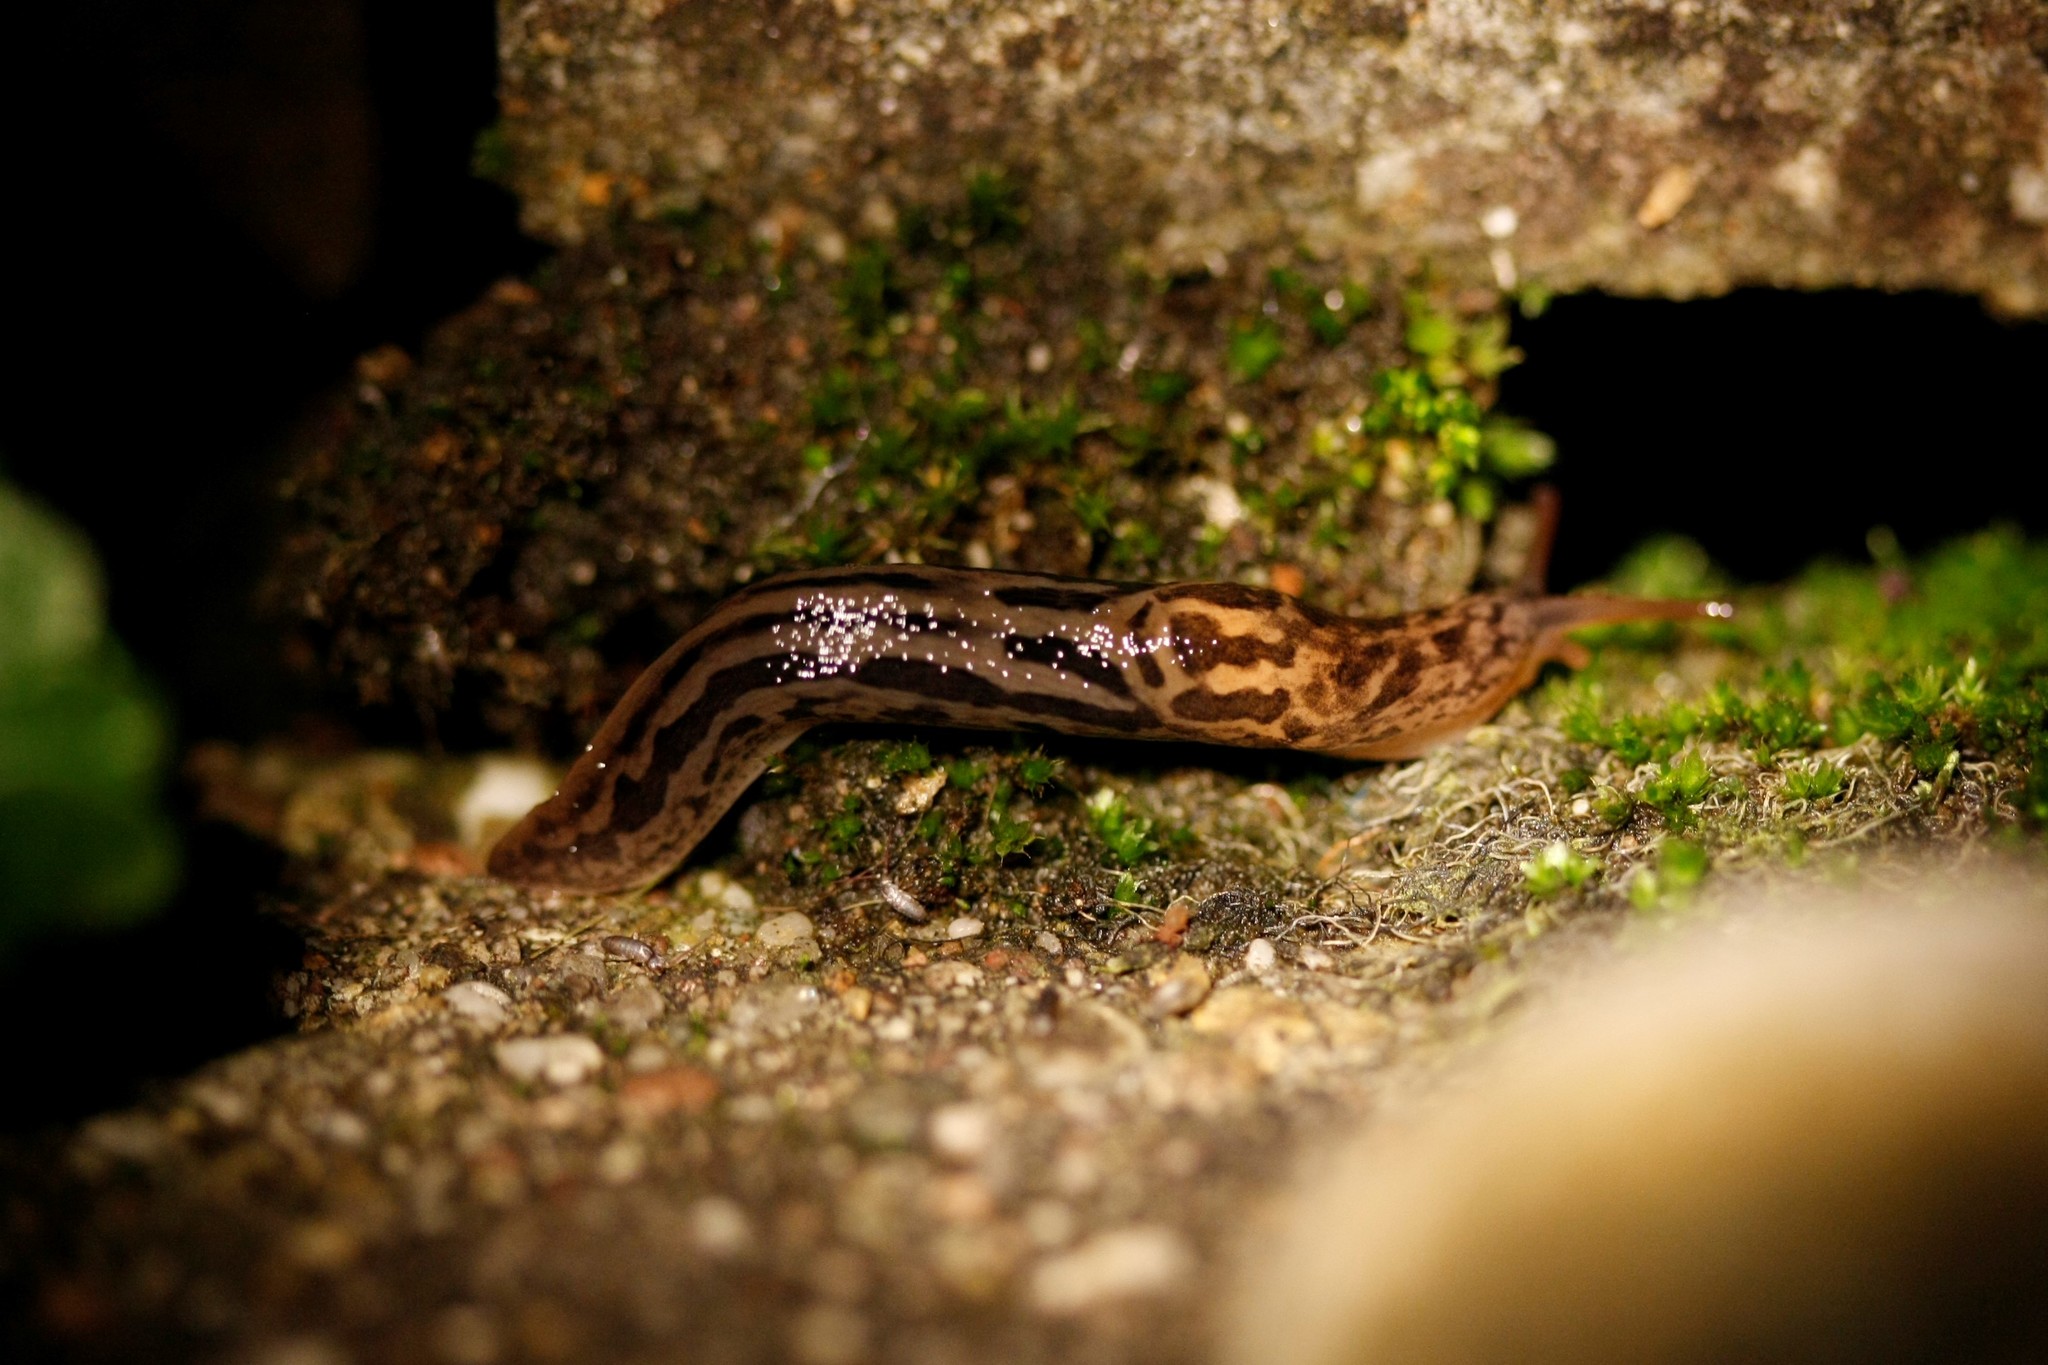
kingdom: Animalia
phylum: Mollusca
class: Gastropoda
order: Stylommatophora
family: Limacidae
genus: Limax
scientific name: Limax maximus
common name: Great grey slug
